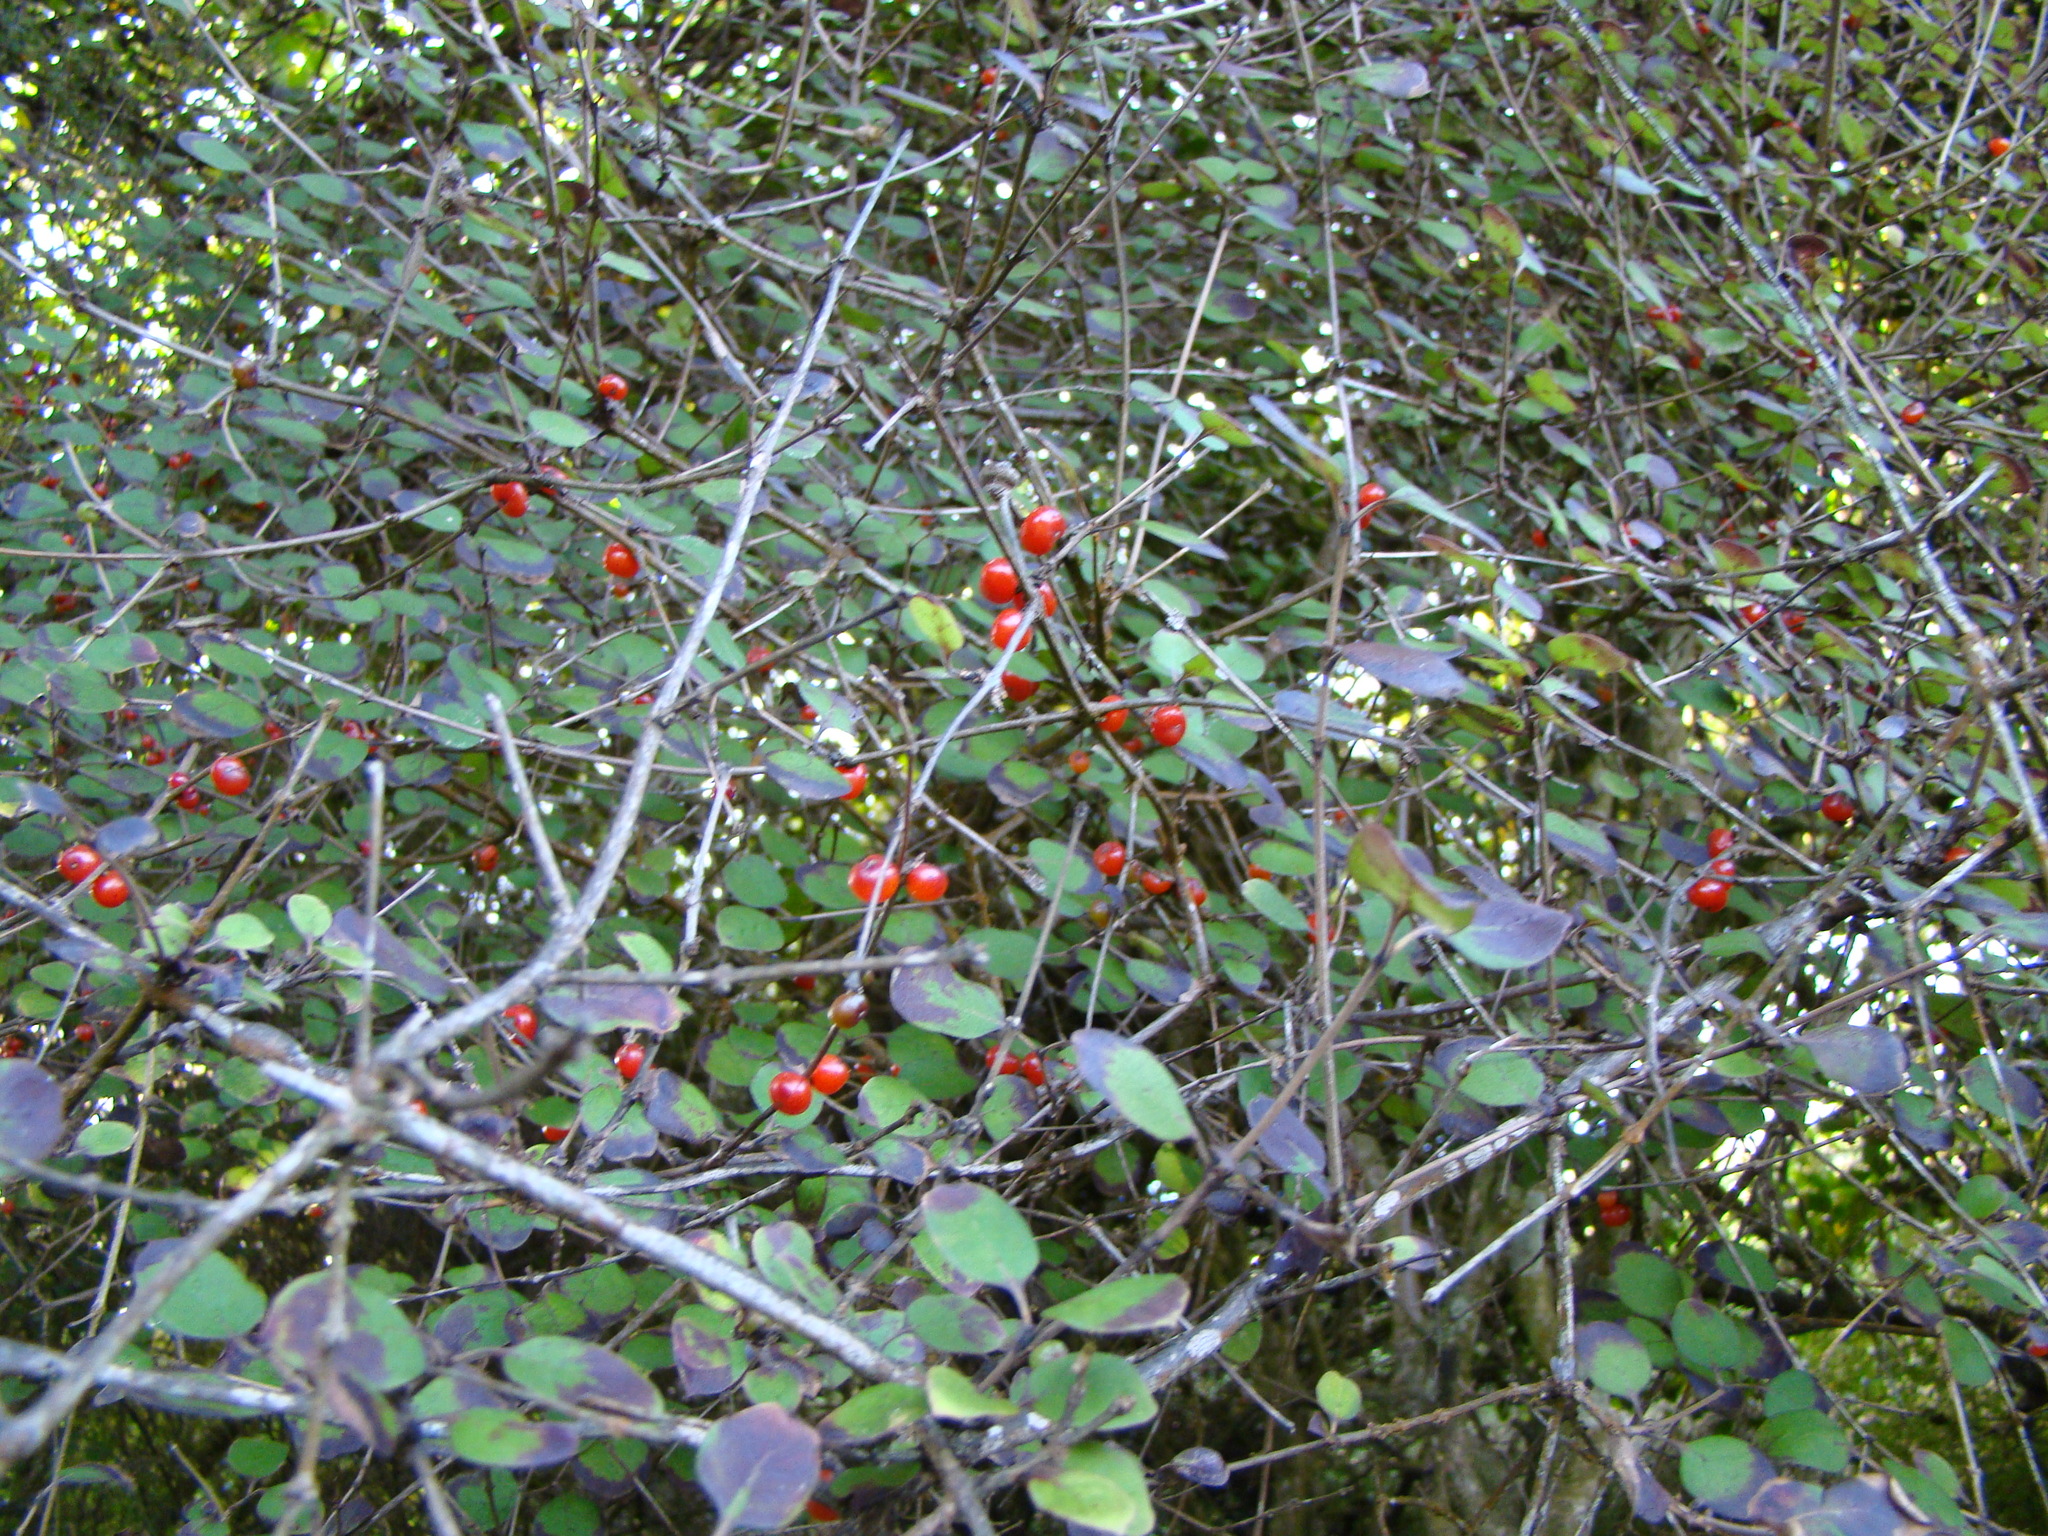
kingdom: Plantae
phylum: Tracheophyta
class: Magnoliopsida
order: Gentianales
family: Rubiaceae
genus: Coprosma
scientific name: Coprosma rotundifolia
